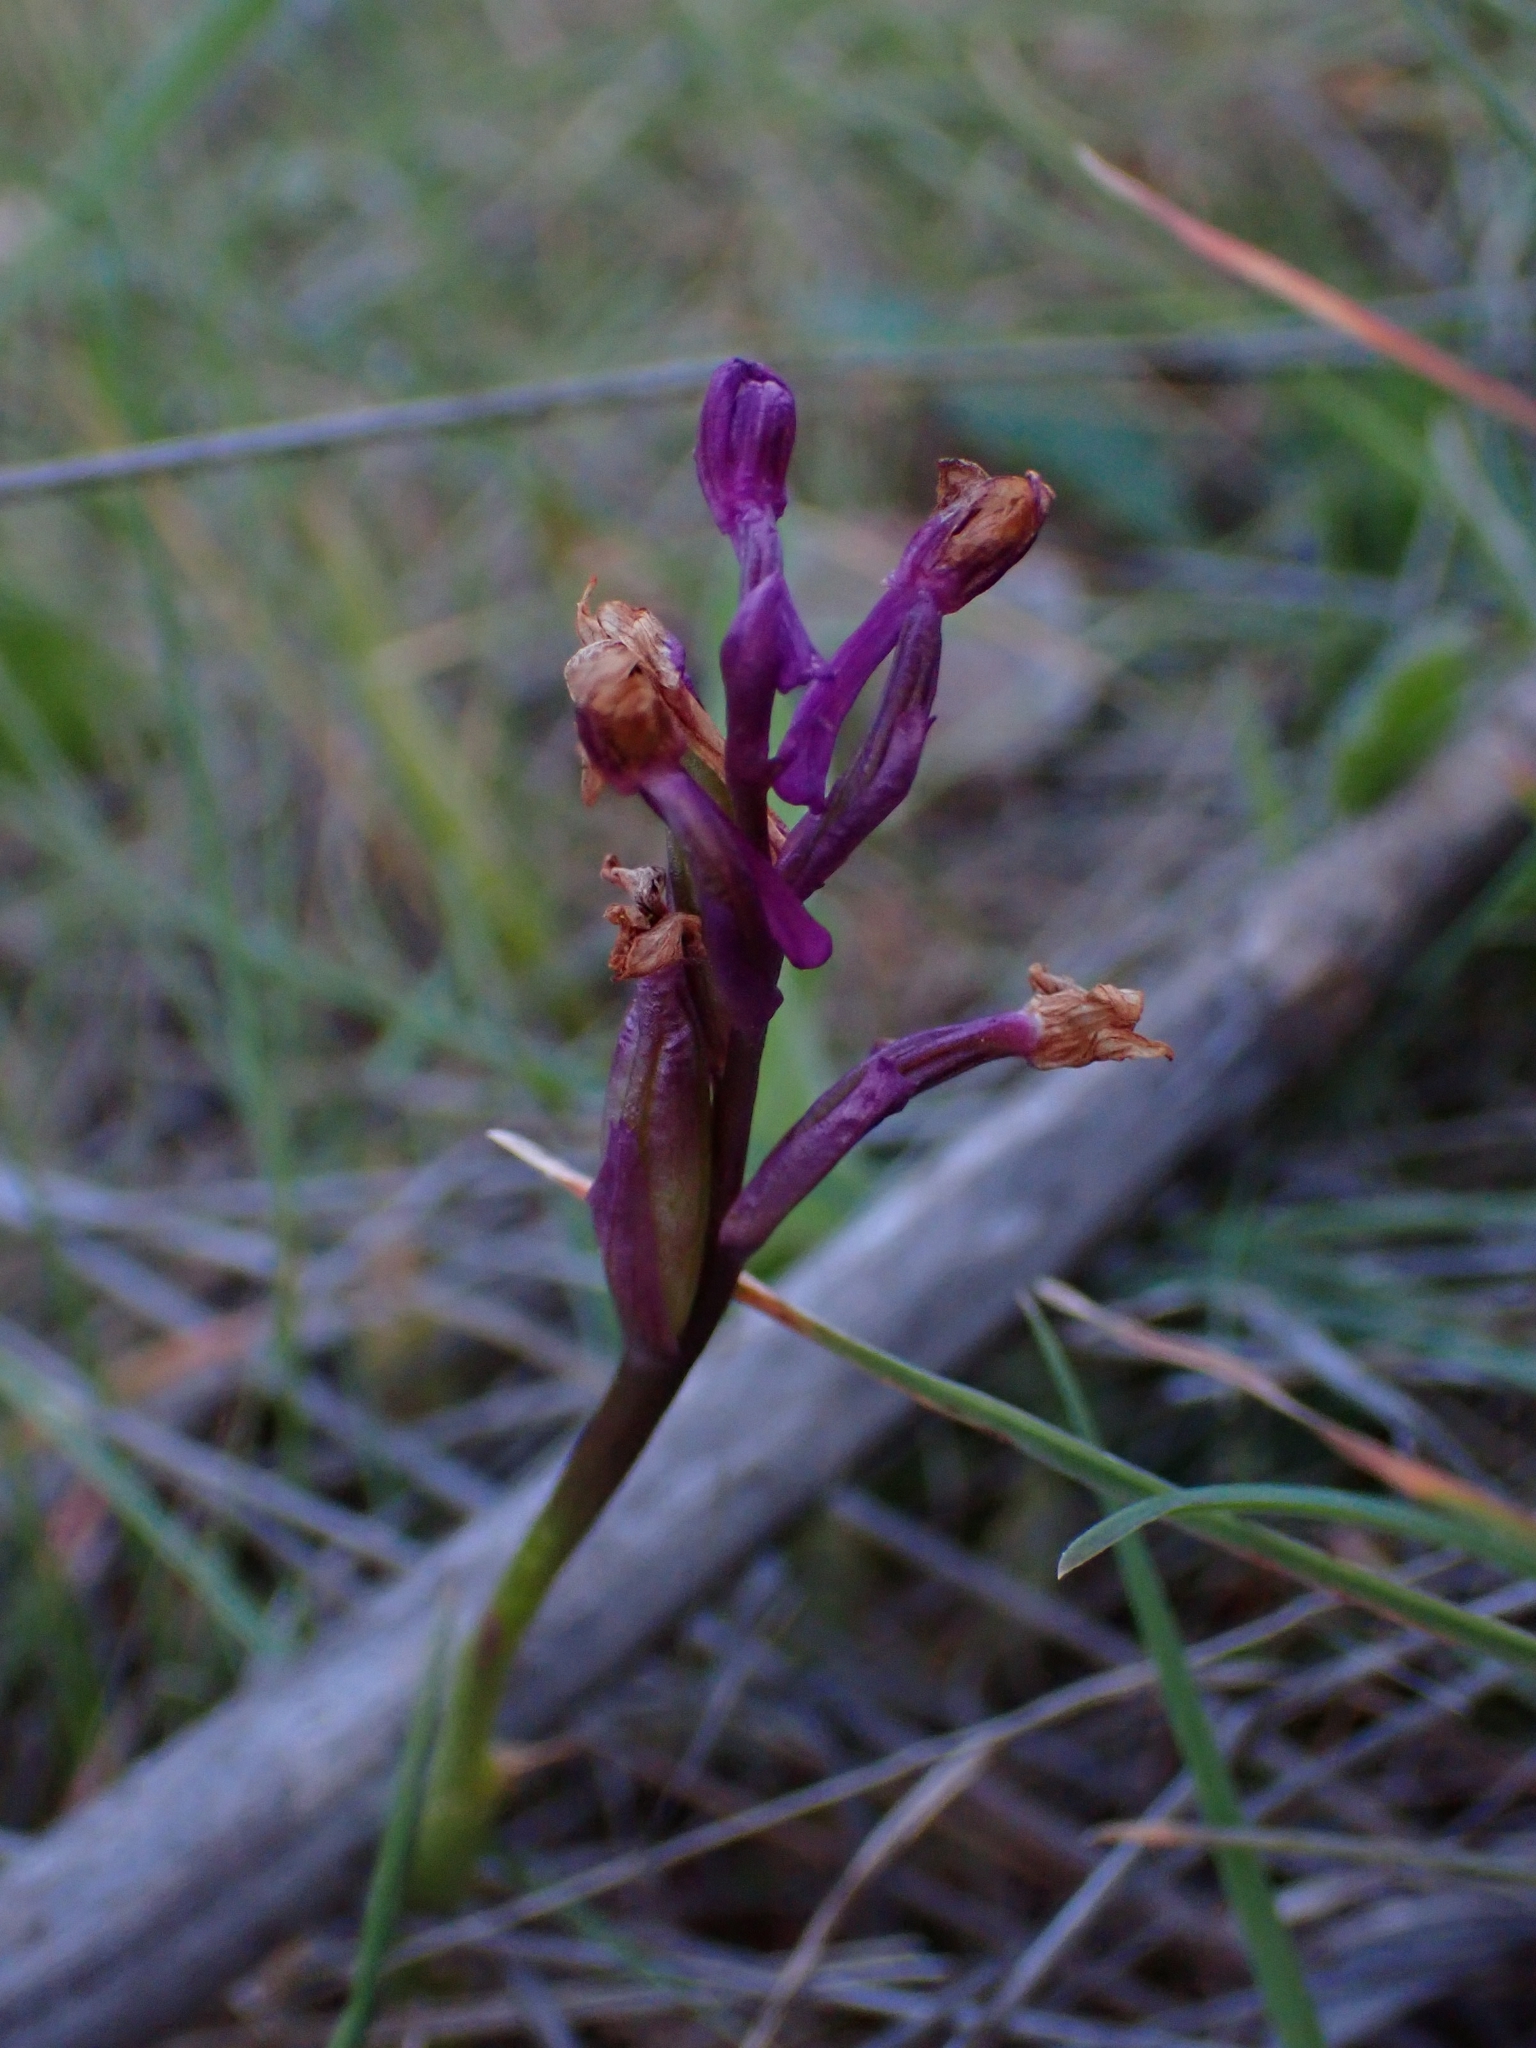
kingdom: Plantae
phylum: Tracheophyta
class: Liliopsida
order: Asparagales
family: Orchidaceae
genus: Anacamptis
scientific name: Anacamptis morio
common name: Green-winged orchid
